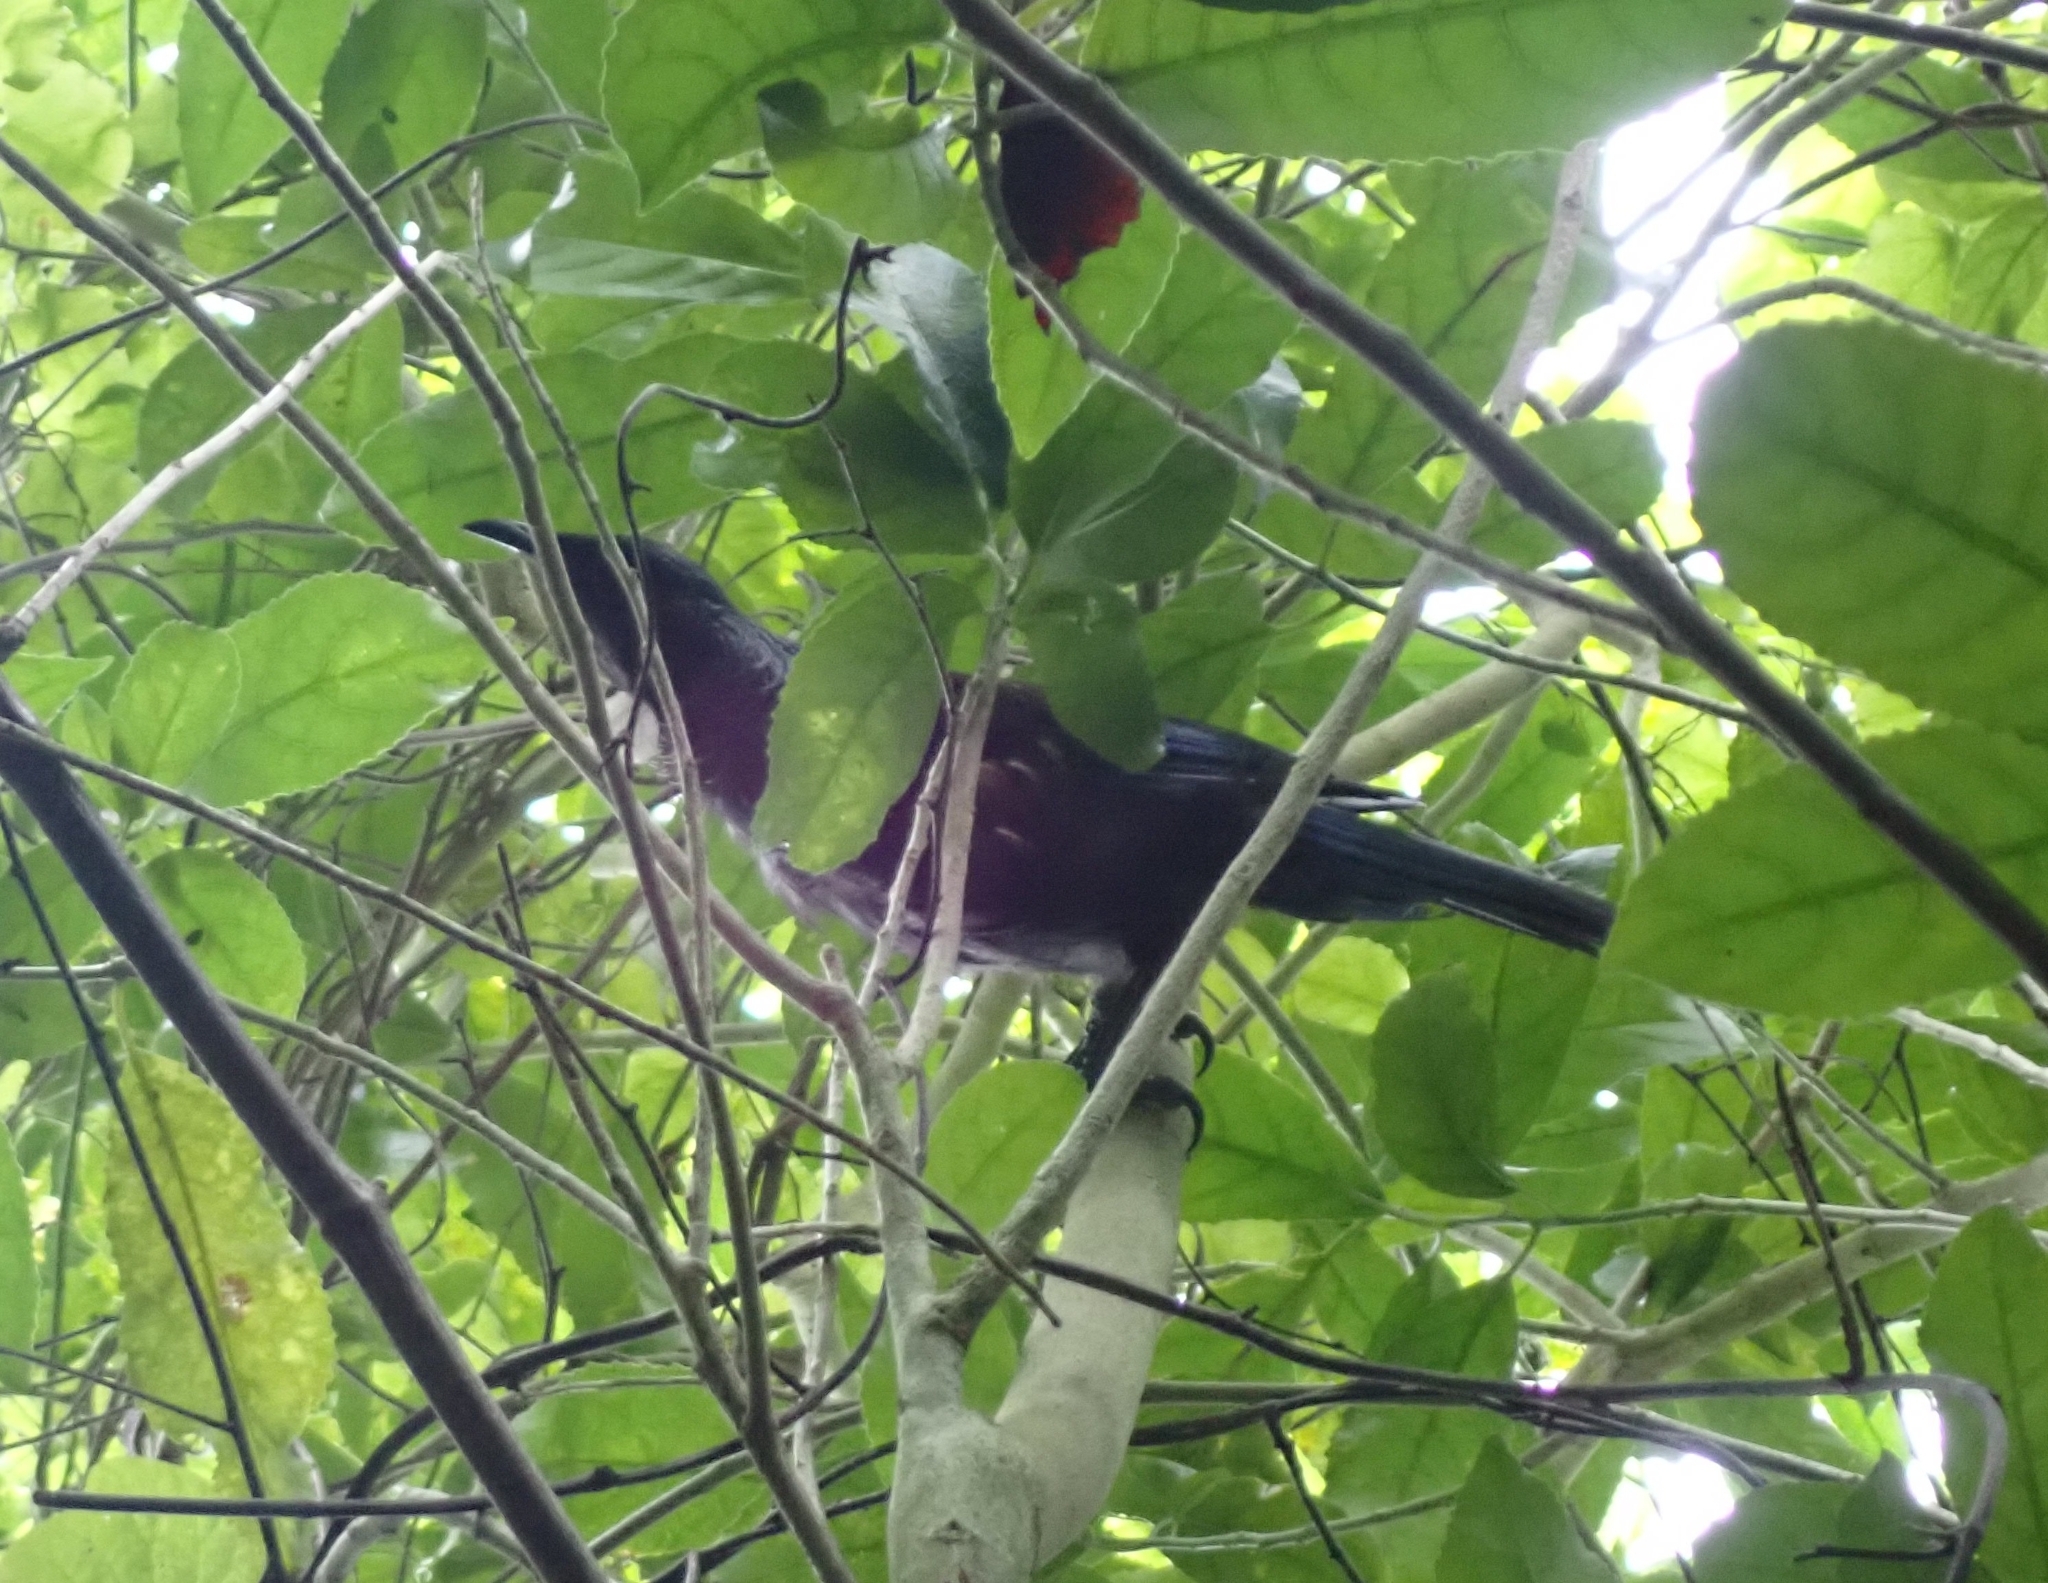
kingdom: Animalia
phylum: Chordata
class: Aves
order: Passeriformes
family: Meliphagidae
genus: Prosthemadera
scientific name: Prosthemadera novaeseelandiae
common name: Tui
